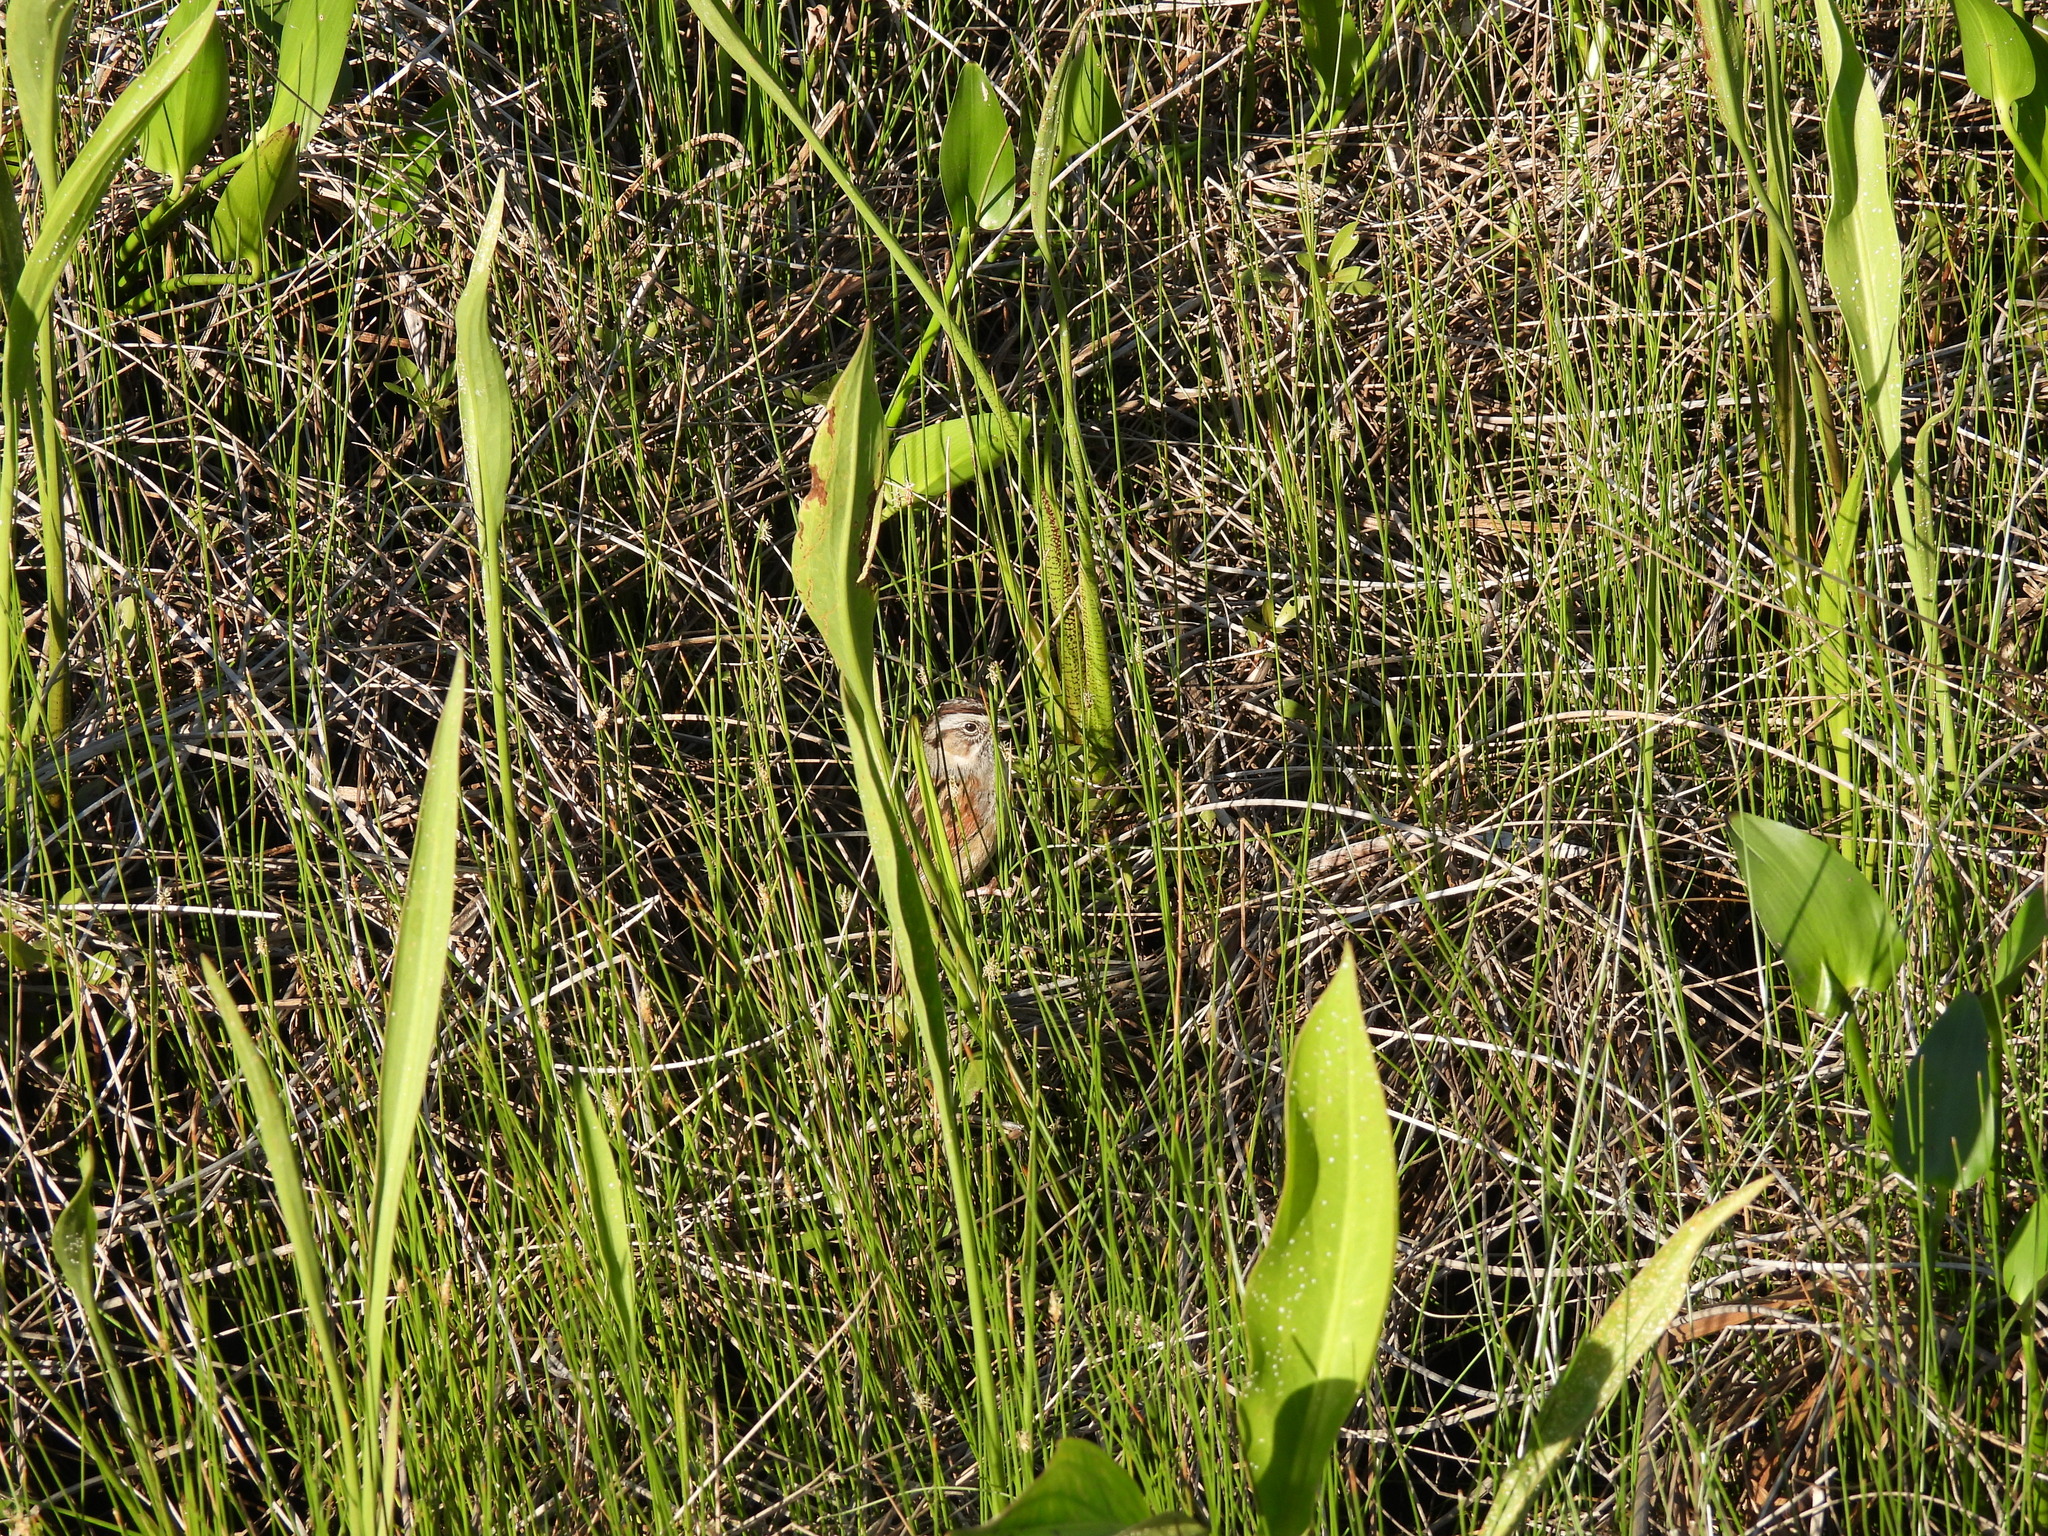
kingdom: Animalia
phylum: Chordata
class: Aves
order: Passeriformes
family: Passerellidae
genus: Melospiza
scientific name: Melospiza georgiana
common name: Swamp sparrow
